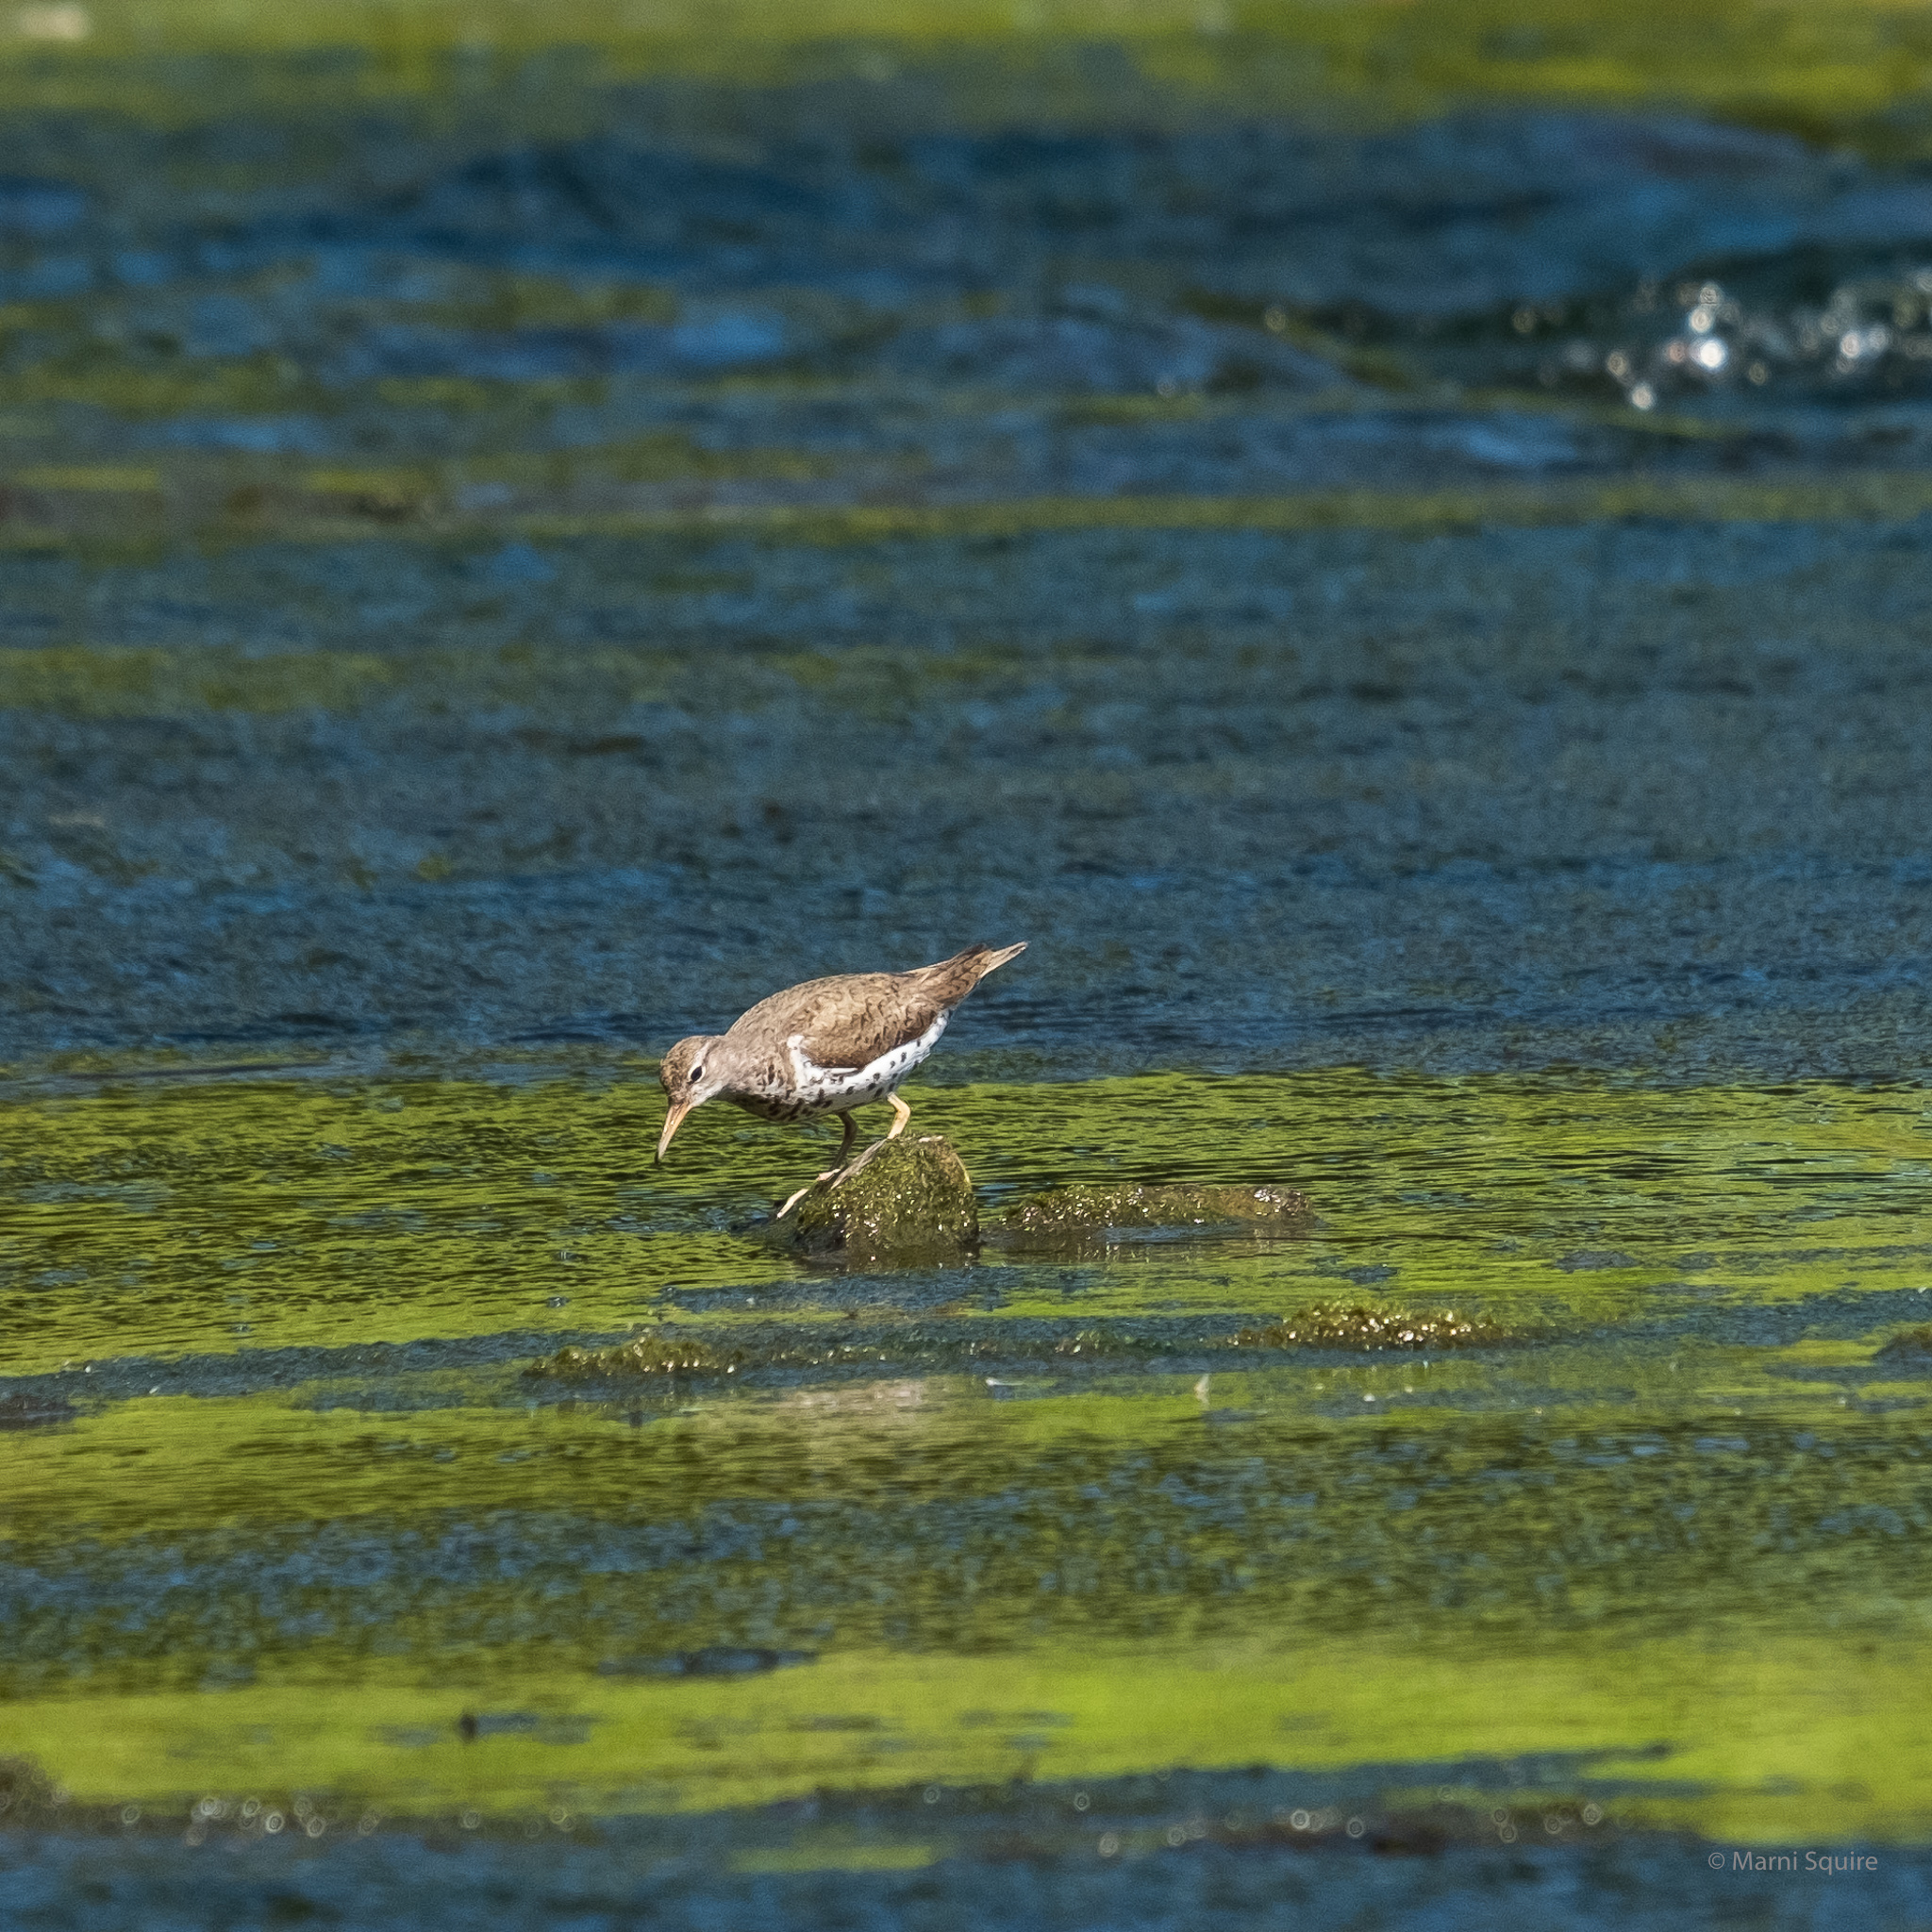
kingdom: Animalia
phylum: Chordata
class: Aves
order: Charadriiformes
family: Scolopacidae
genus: Actitis
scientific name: Actitis macularius
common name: Spotted sandpiper
